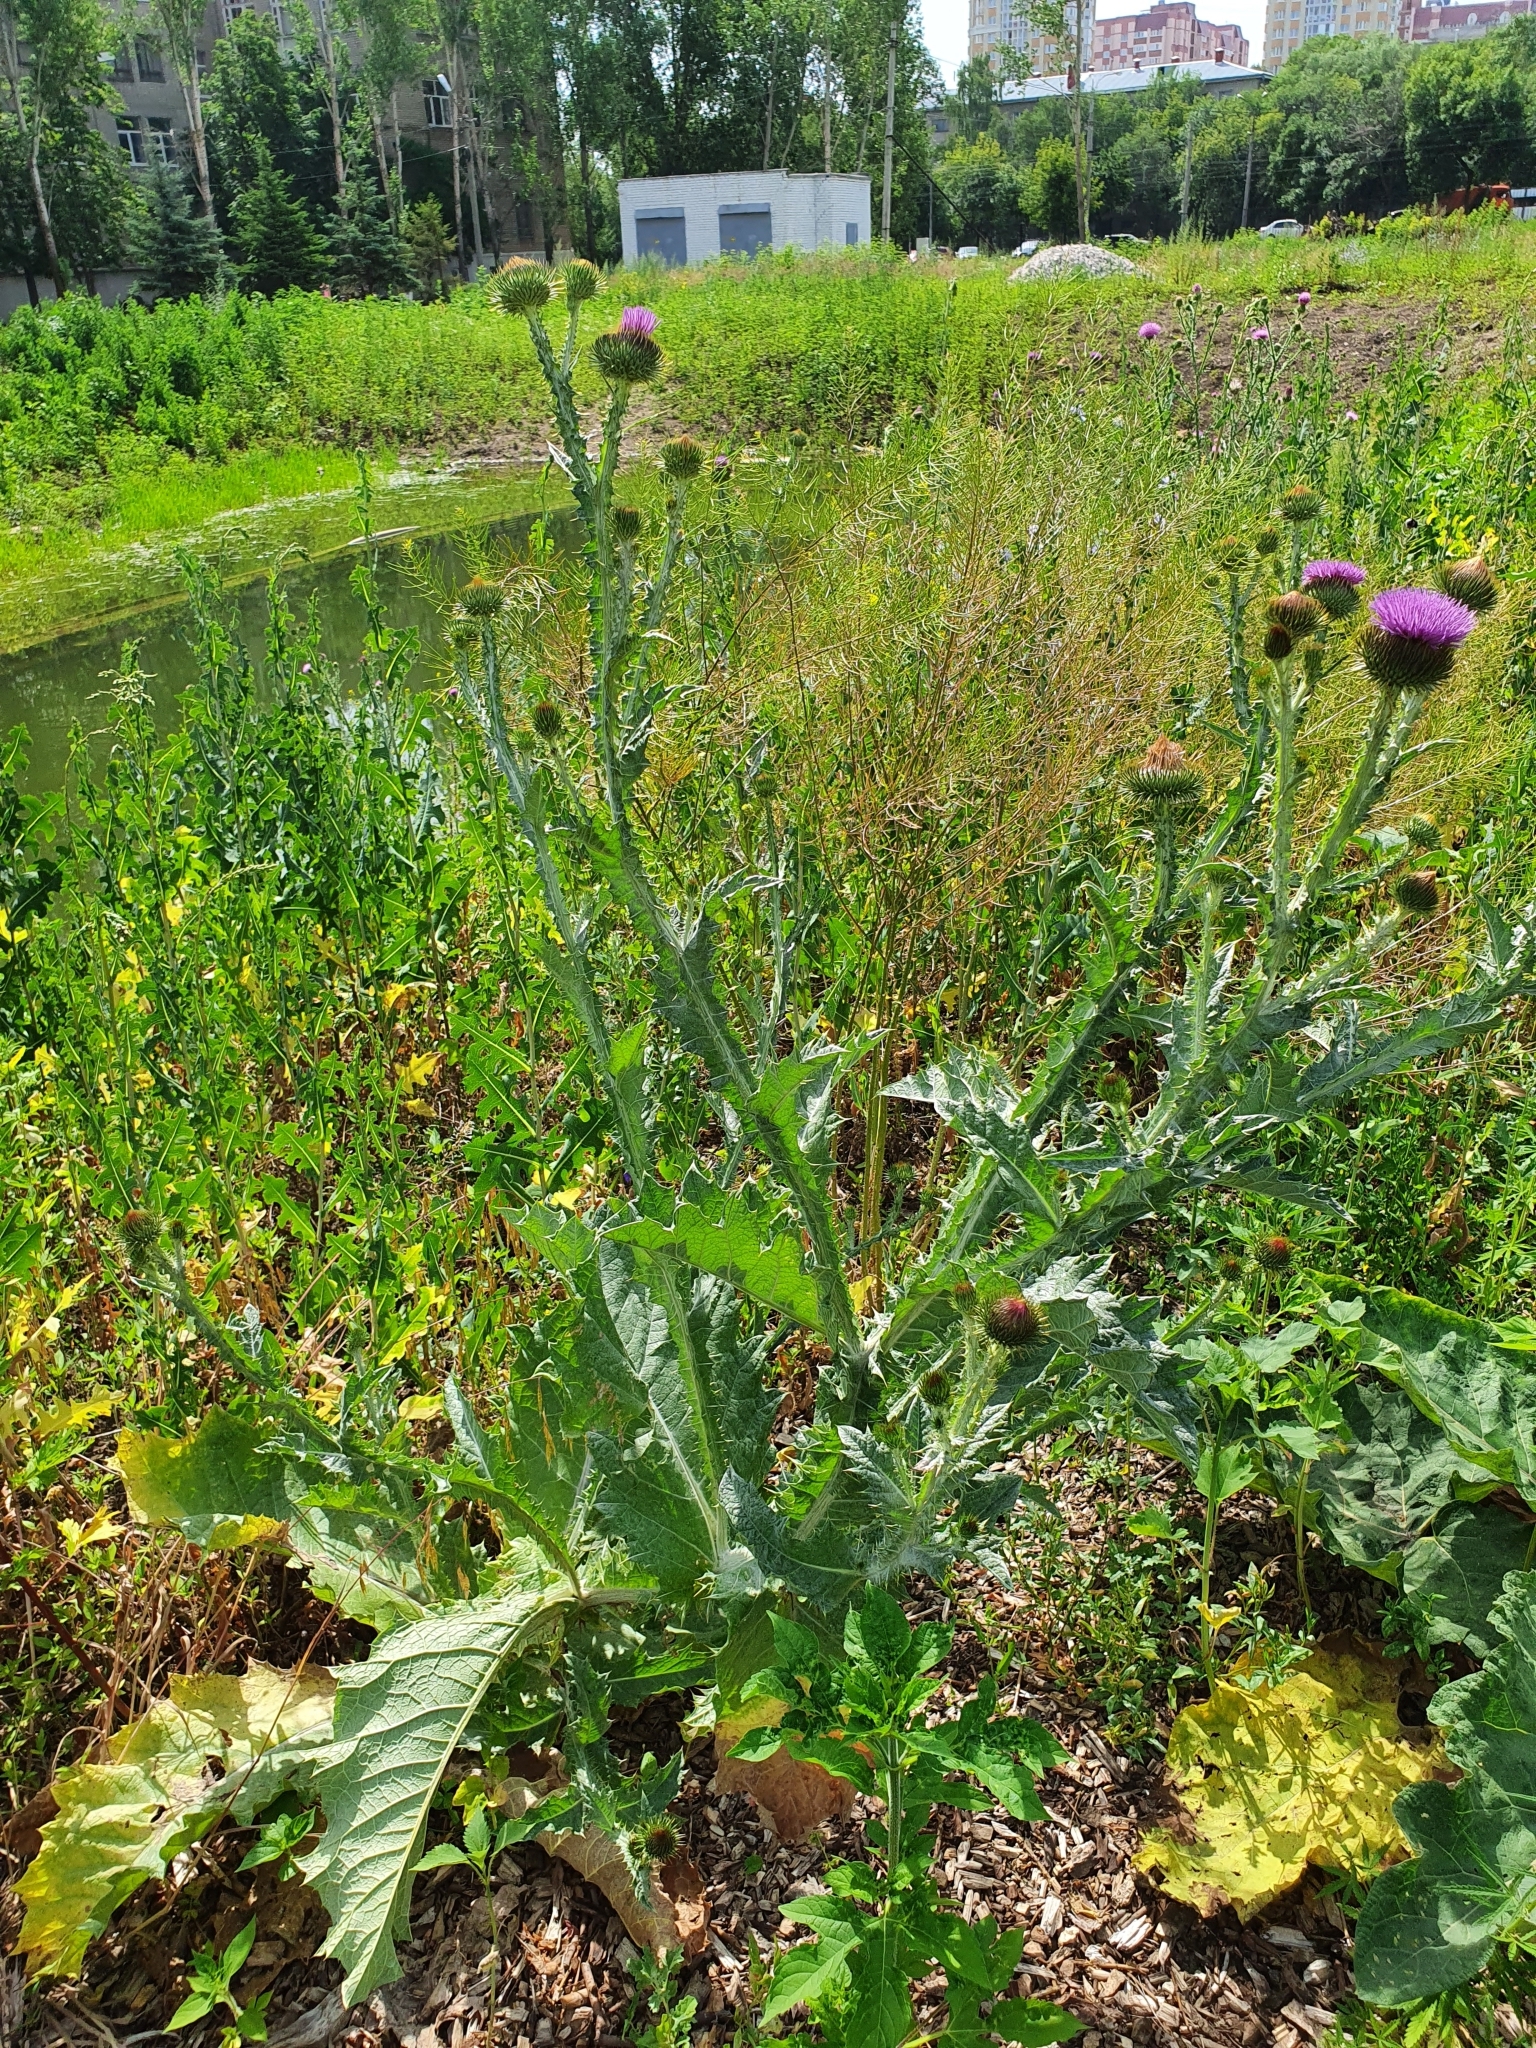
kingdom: Plantae
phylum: Tracheophyta
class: Magnoliopsida
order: Asterales
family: Asteraceae
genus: Onopordum
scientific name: Onopordum acanthium
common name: Scotch thistle
